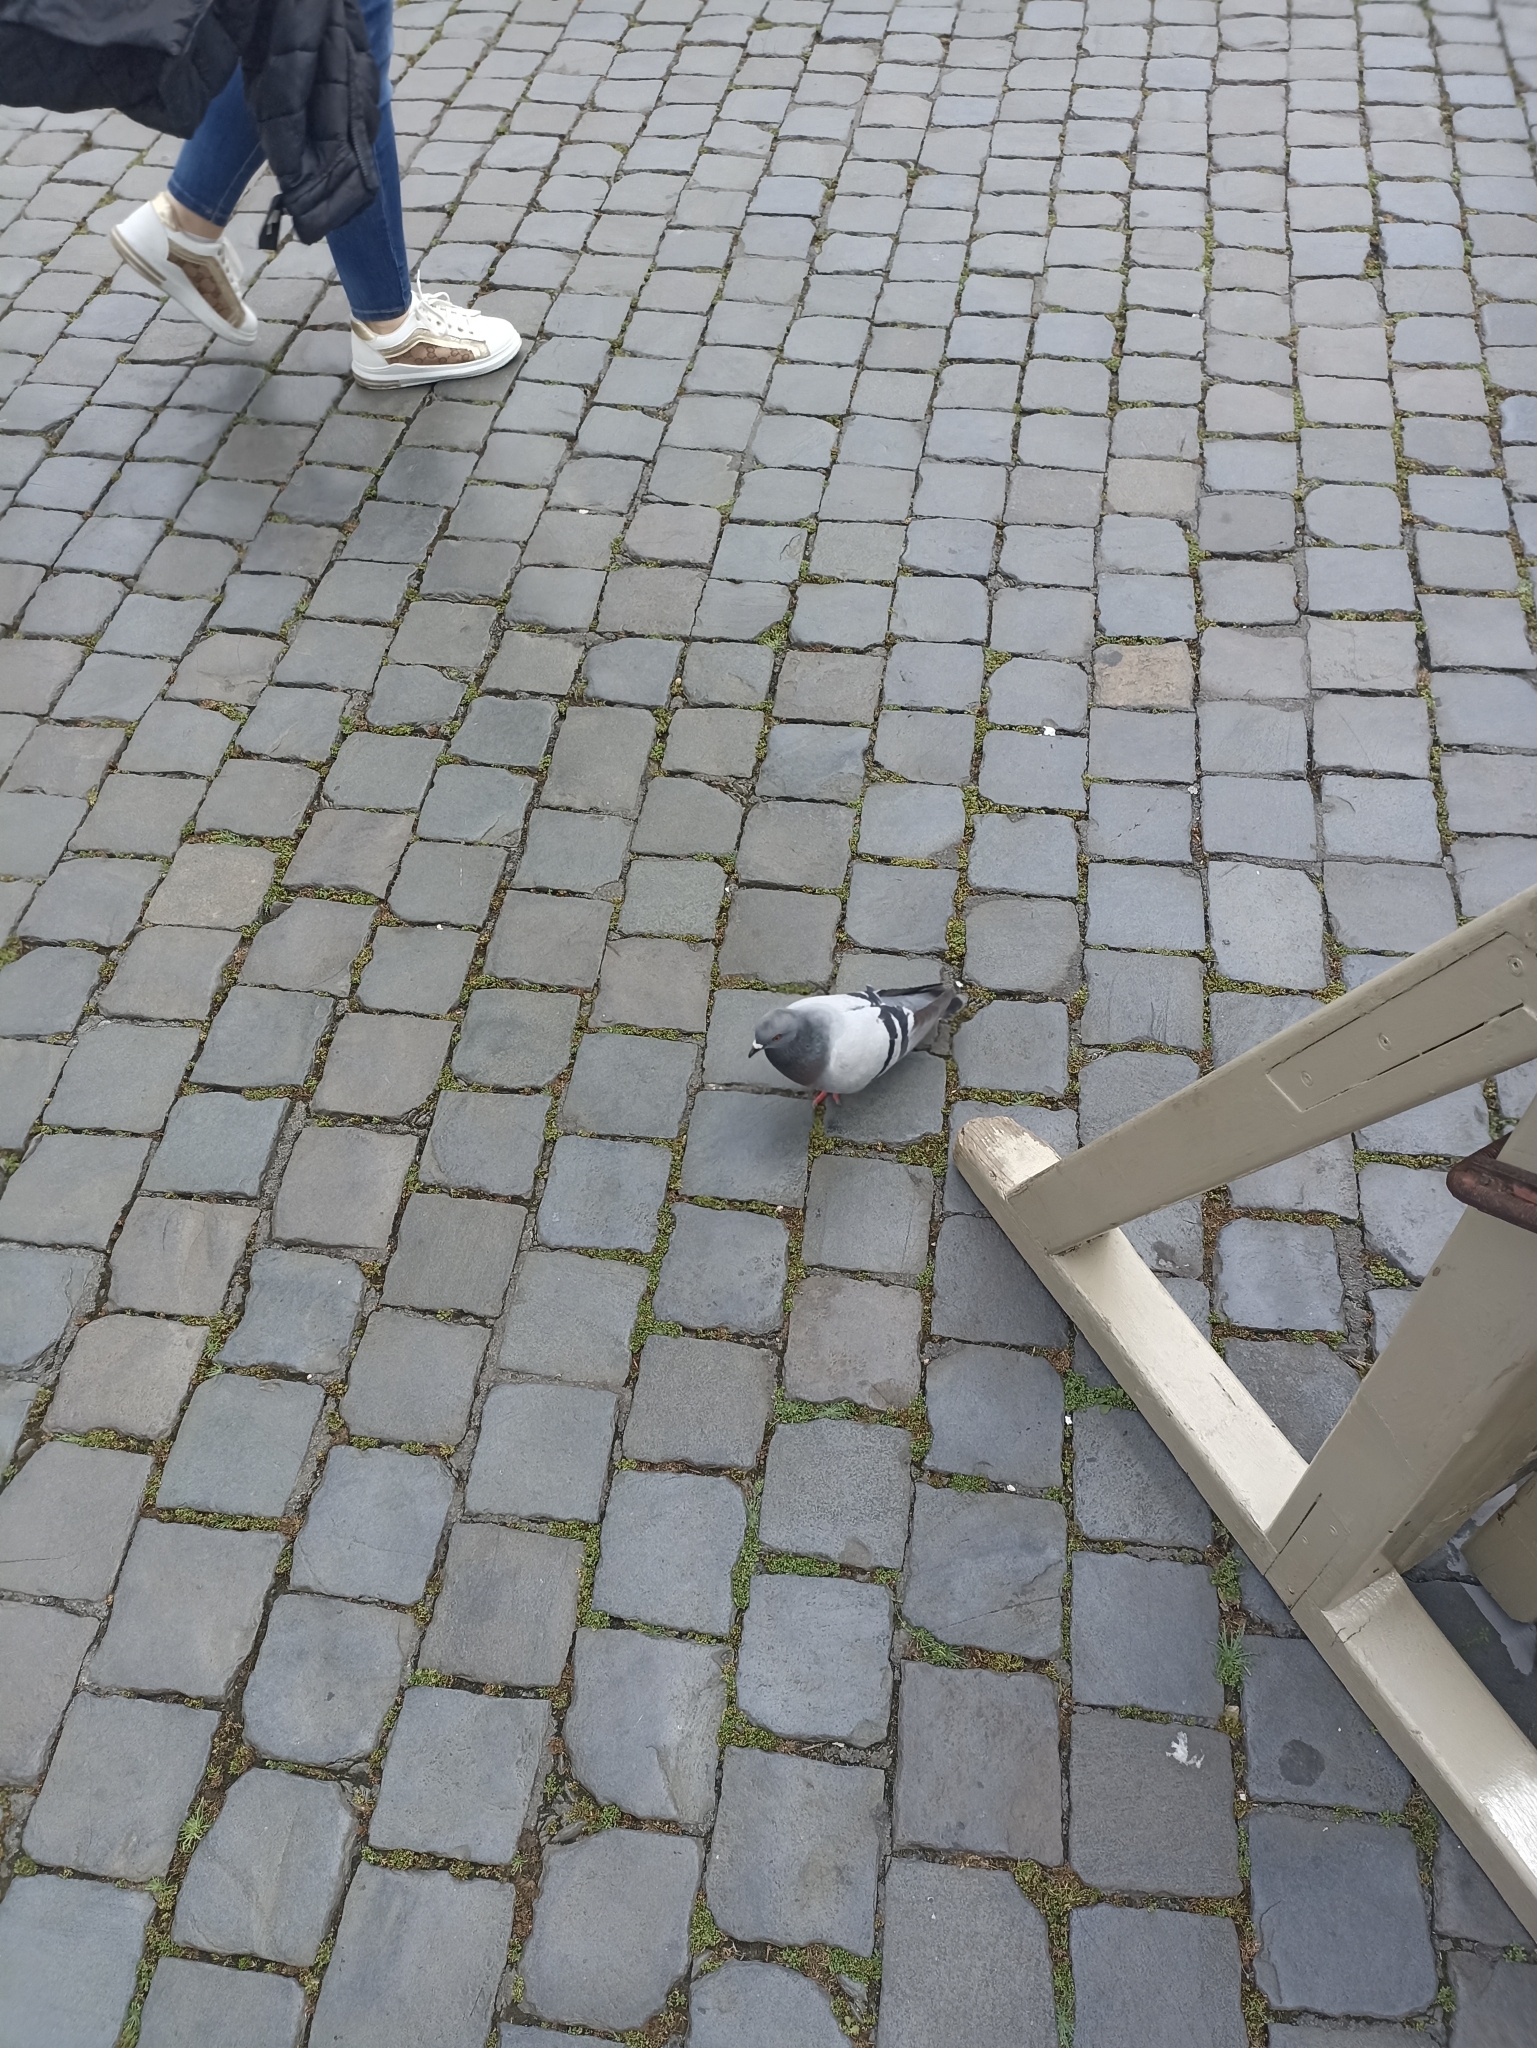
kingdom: Animalia
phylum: Chordata
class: Aves
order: Columbiformes
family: Columbidae
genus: Columba
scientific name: Columba livia
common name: Rock pigeon
